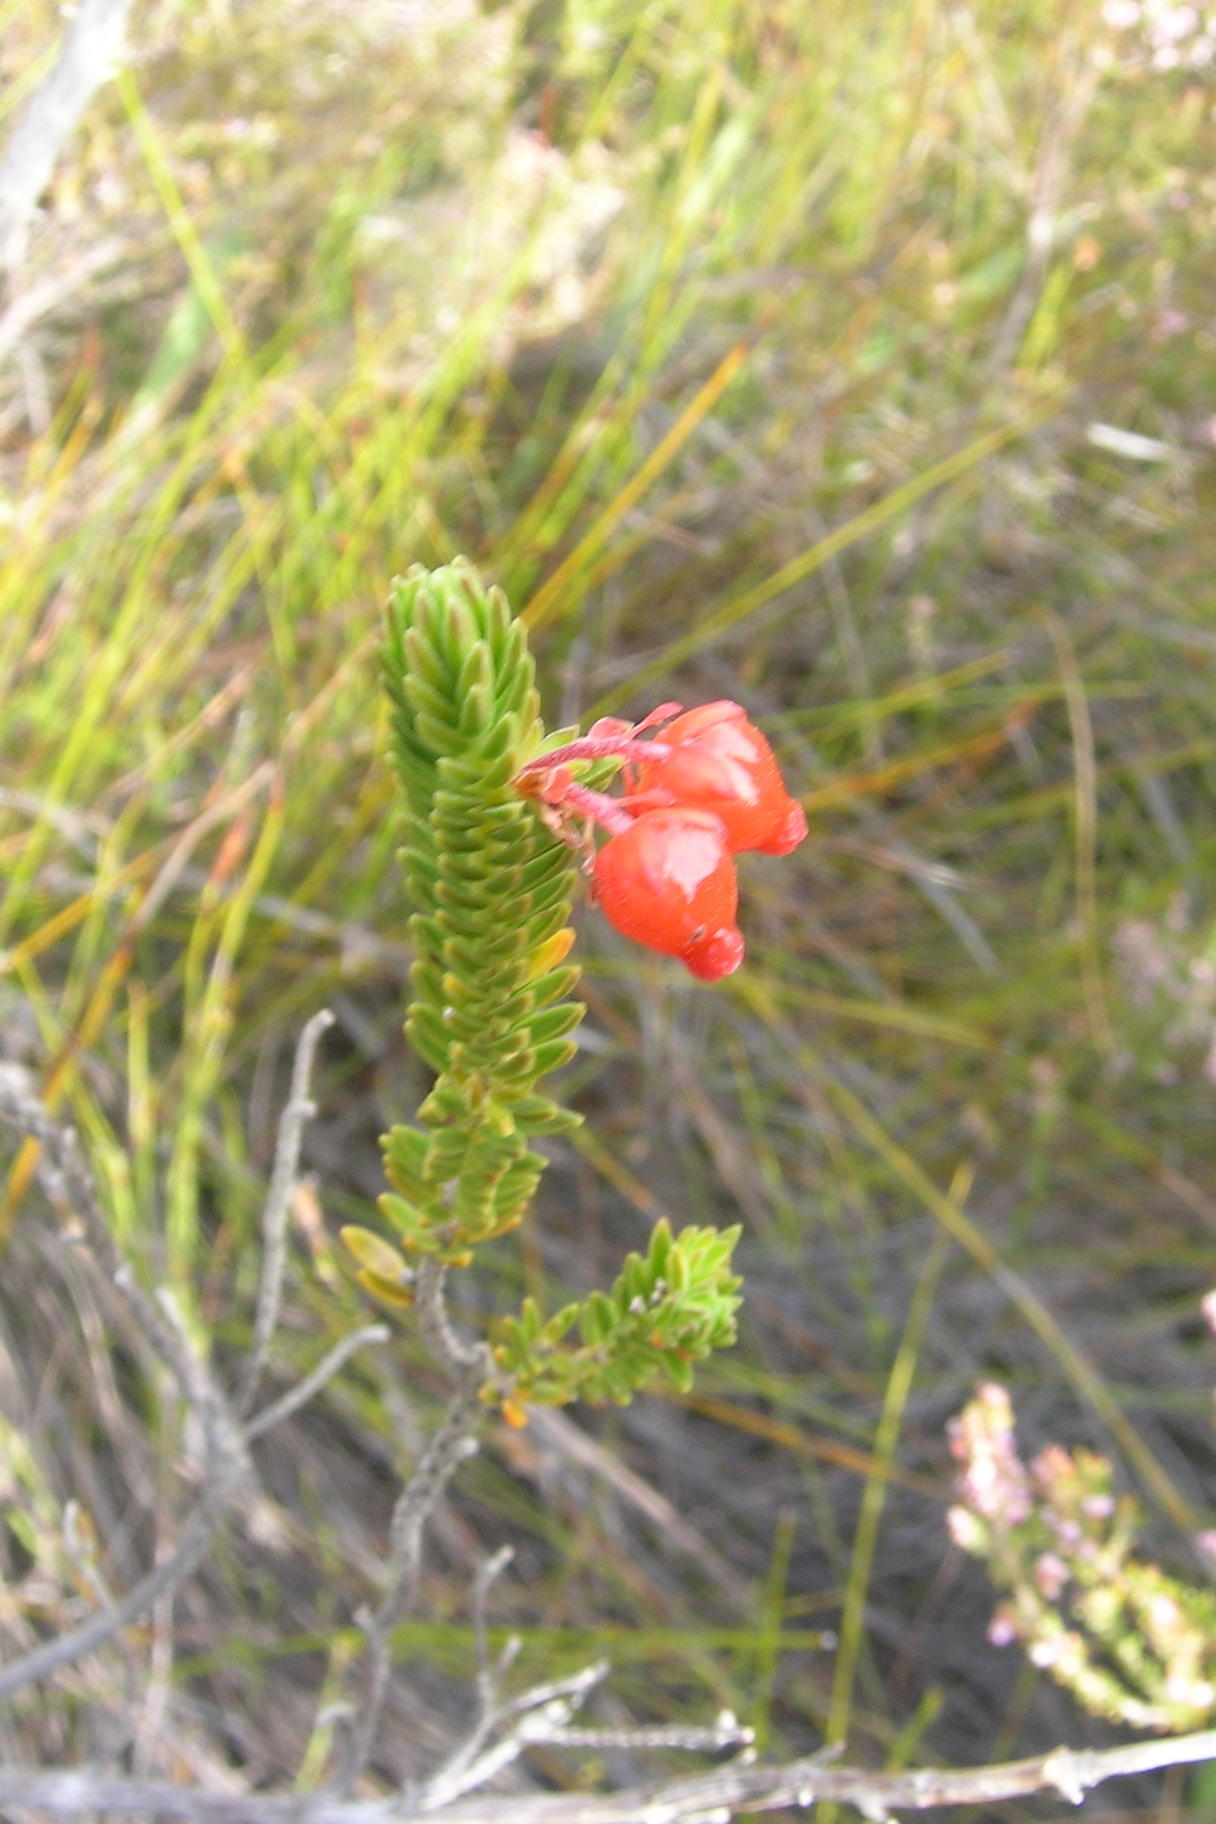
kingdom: Plantae
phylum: Tracheophyta
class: Magnoliopsida
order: Ericales
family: Ericaceae
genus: Erica
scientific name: Erica ardens
